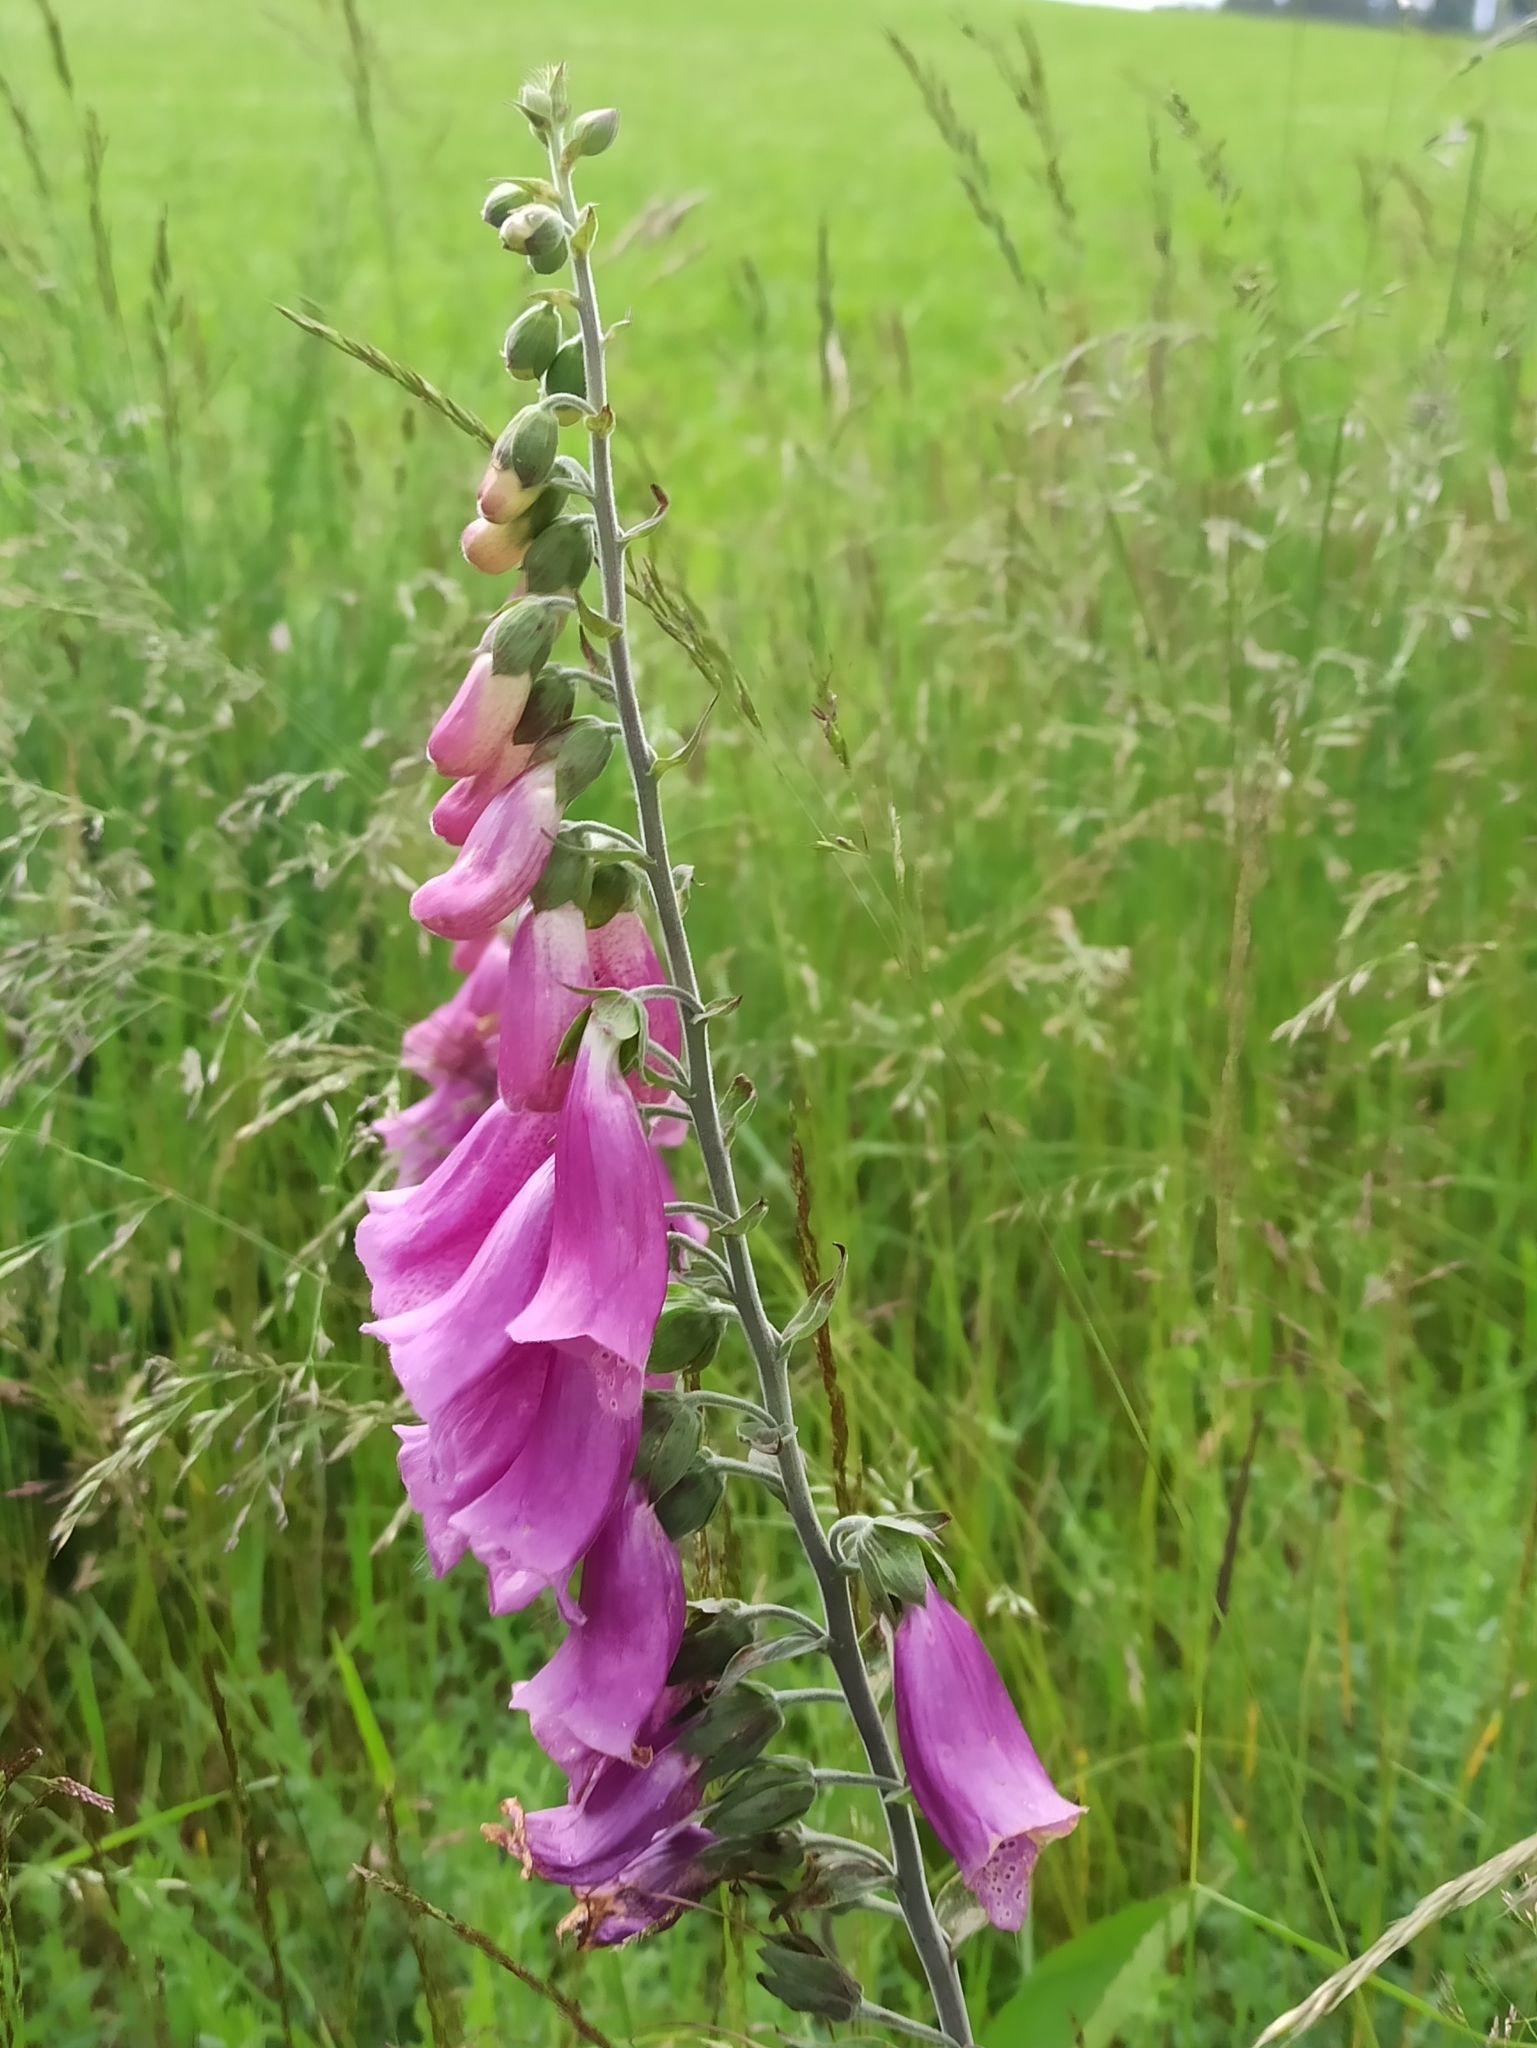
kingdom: Plantae
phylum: Tracheophyta
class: Magnoliopsida
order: Lamiales
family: Plantaginaceae
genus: Digitalis
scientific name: Digitalis purpurea
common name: Foxglove
